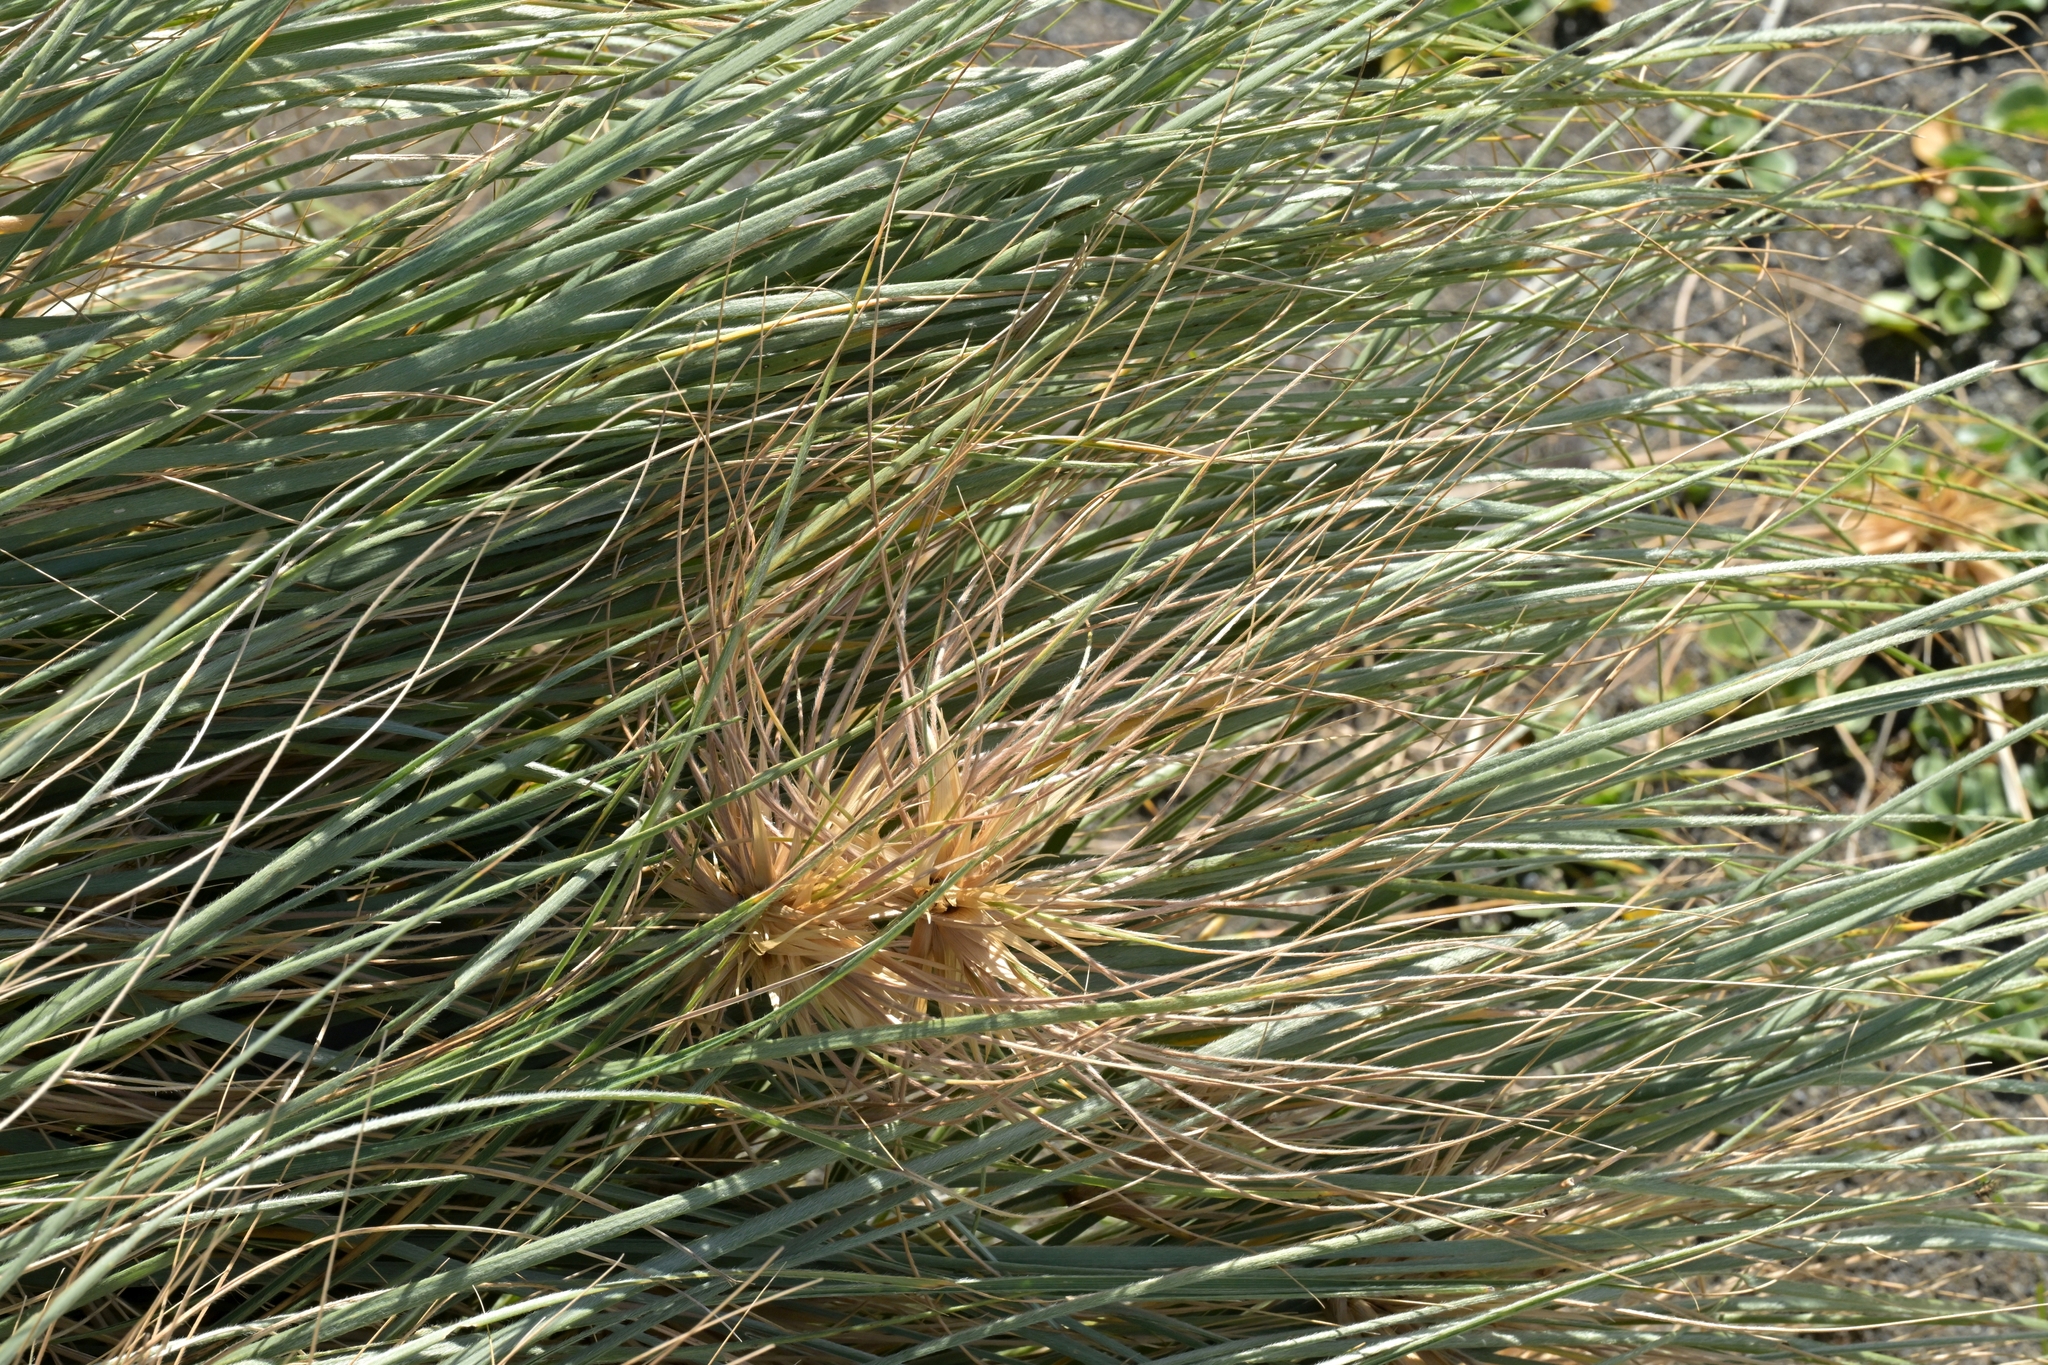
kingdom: Plantae
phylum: Tracheophyta
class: Liliopsida
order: Poales
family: Poaceae
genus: Spinifex
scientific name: Spinifex sericeus
